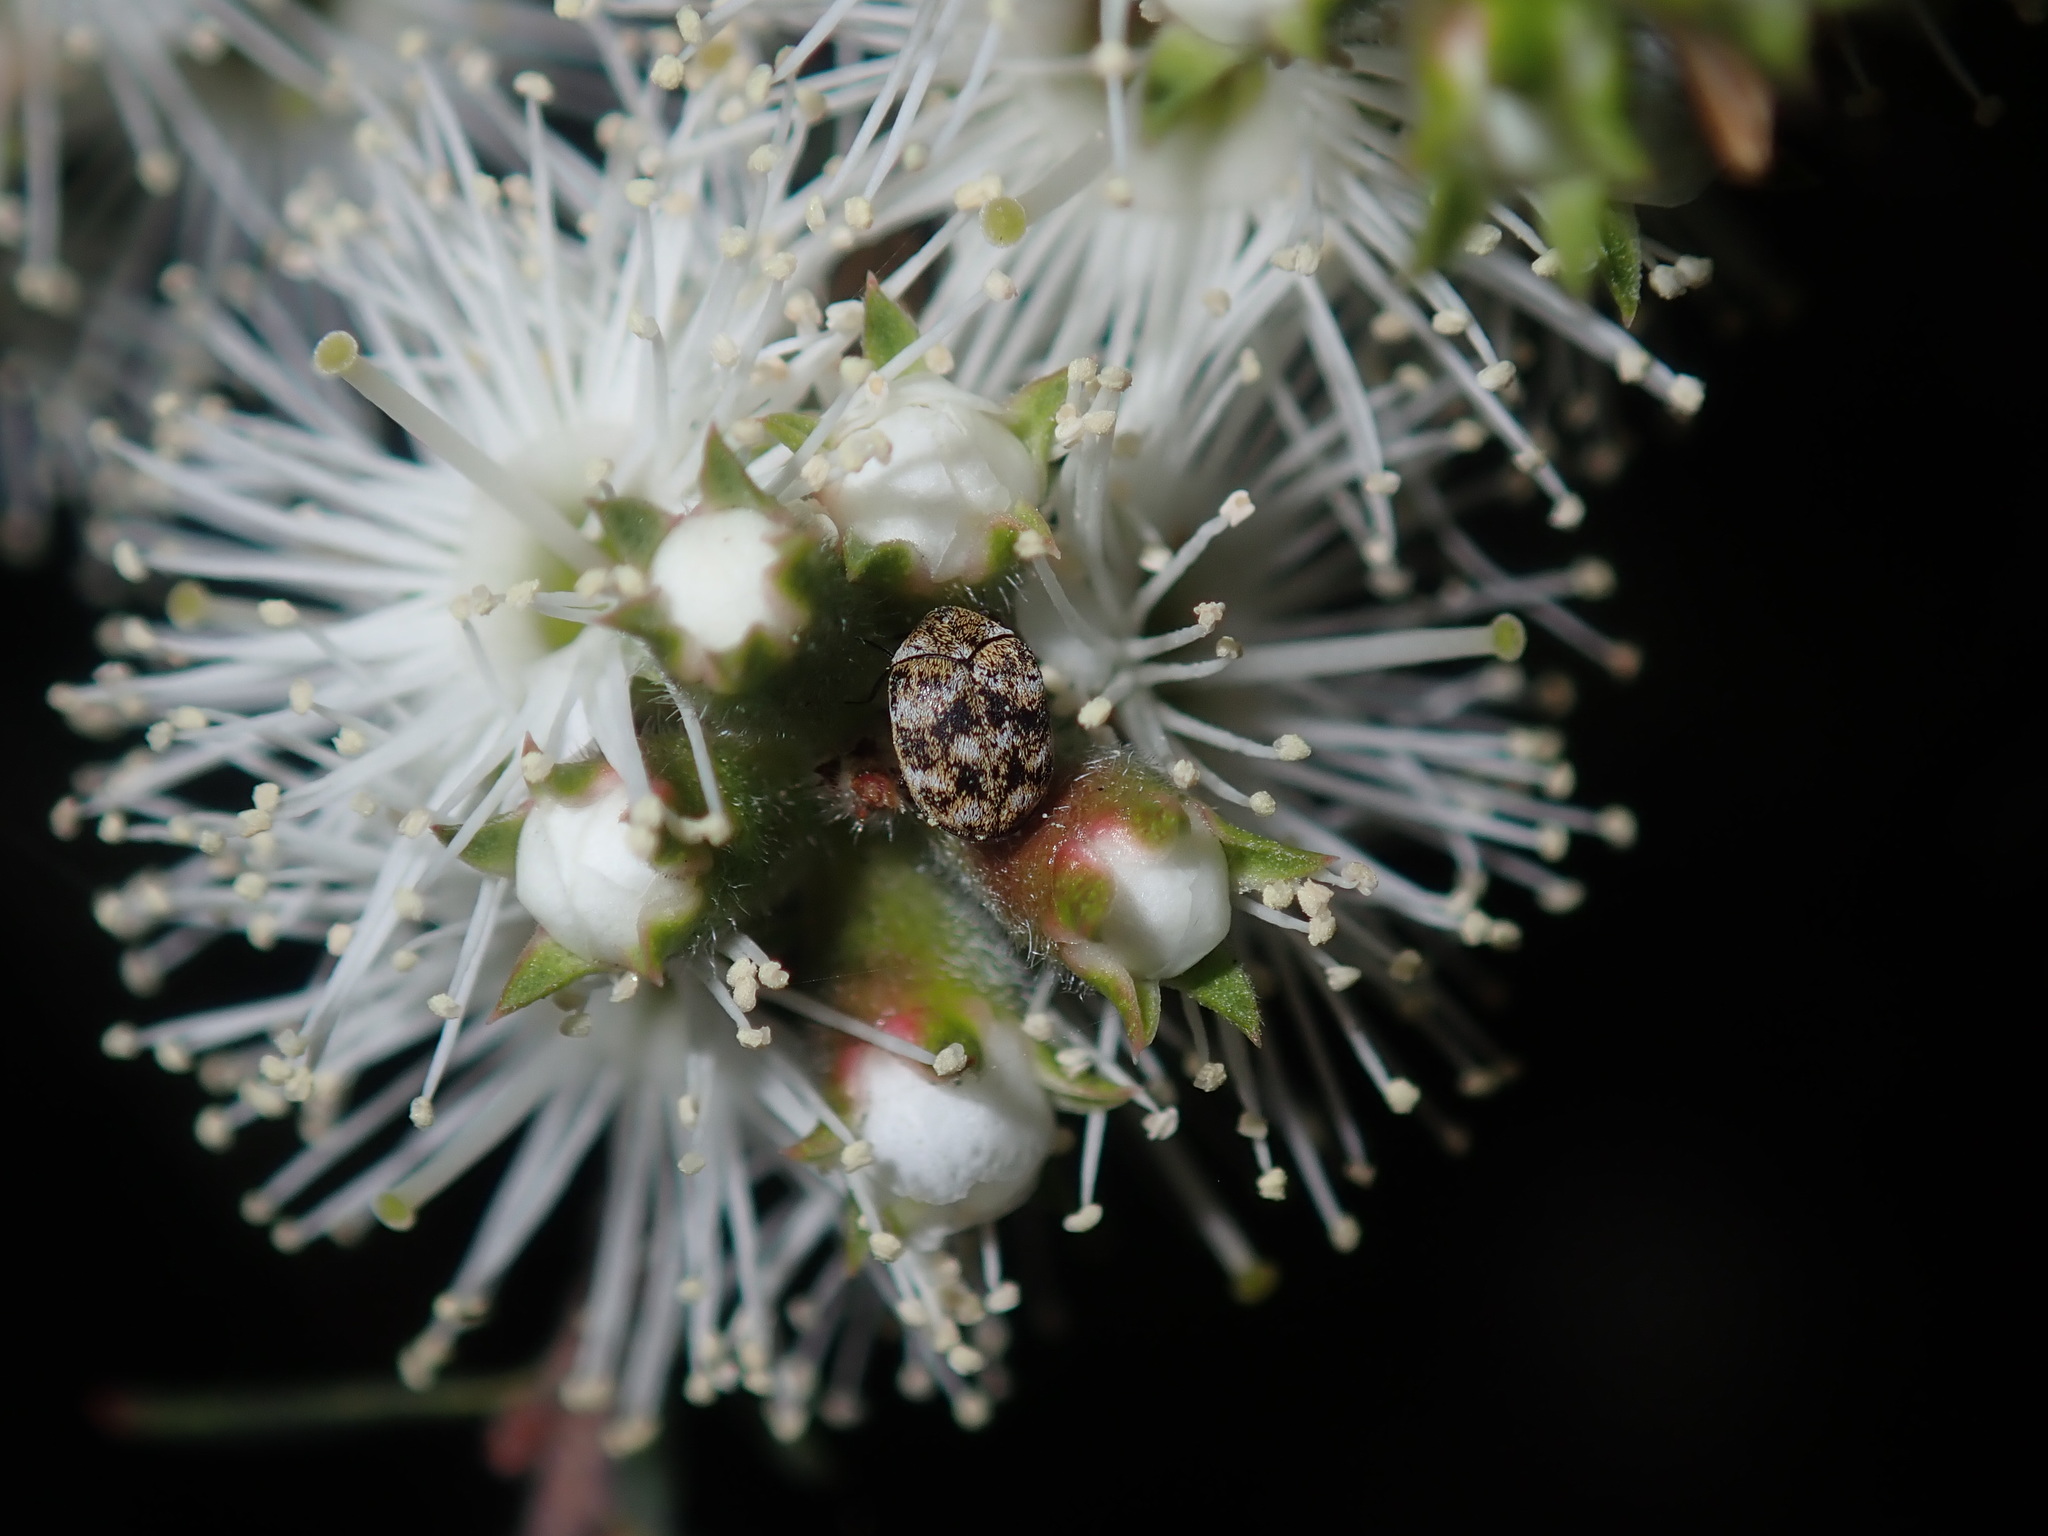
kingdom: Animalia
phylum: Arthropoda
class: Insecta
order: Coleoptera
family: Dermestidae
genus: Anthrenus
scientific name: Anthrenus verbasci
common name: Varied carpet beetle
